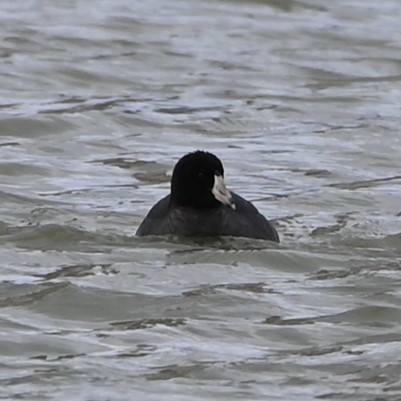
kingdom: Animalia
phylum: Chordata
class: Aves
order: Gruiformes
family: Rallidae
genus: Fulica
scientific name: Fulica americana
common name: American coot
